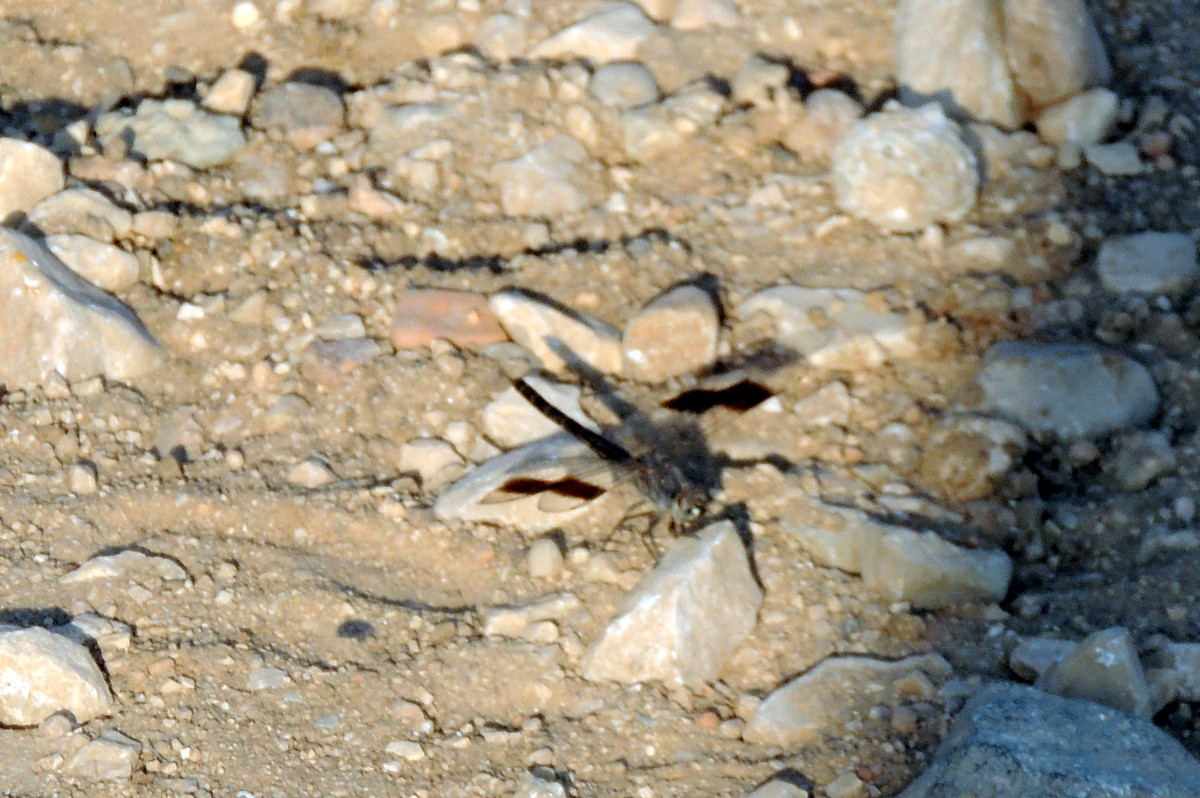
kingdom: Animalia
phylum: Arthropoda
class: Insecta
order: Odonata
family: Libellulidae
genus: Brachythemis
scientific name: Brachythemis impartita
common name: Banded groundling
